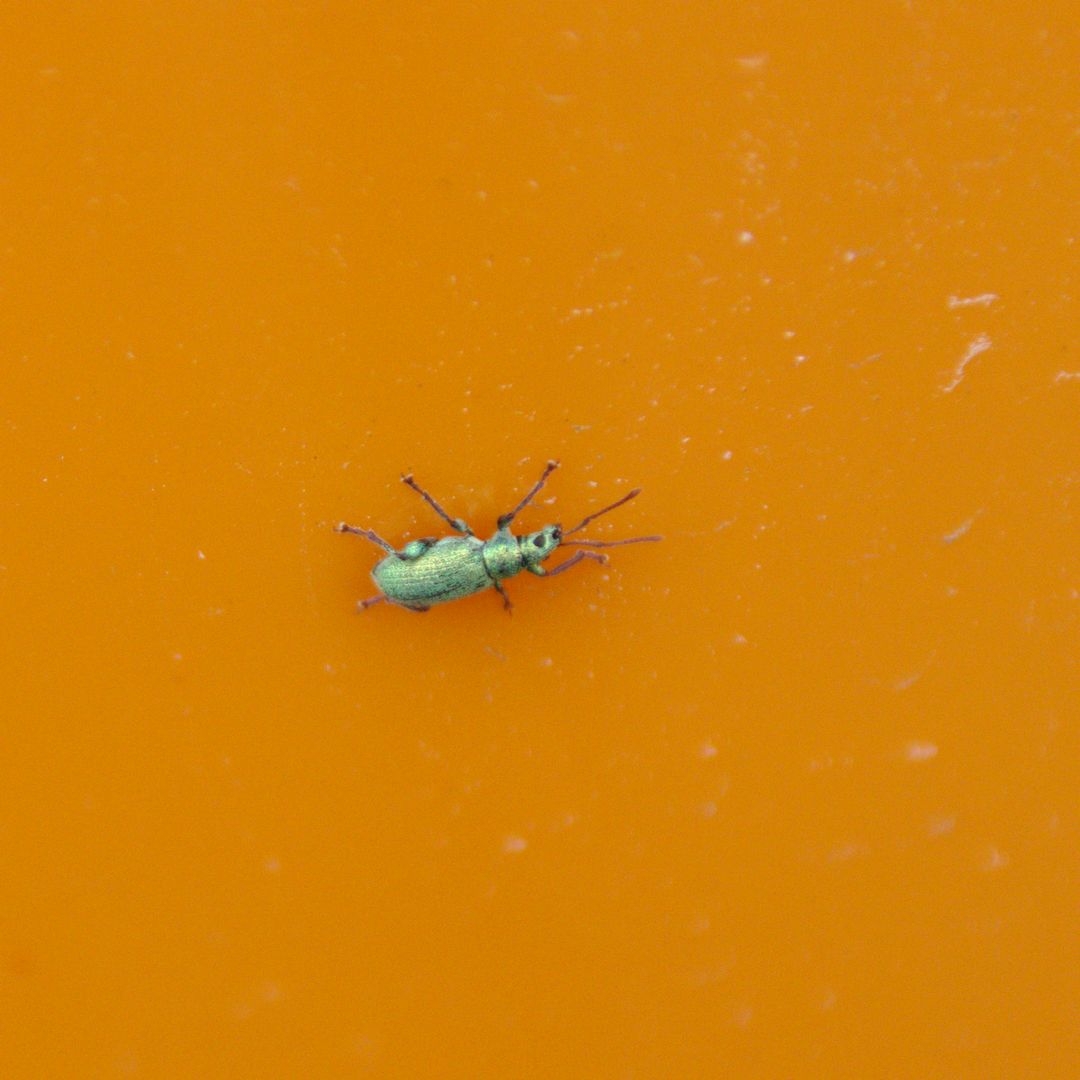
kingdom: Animalia
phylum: Arthropoda
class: Insecta
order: Coleoptera
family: Curculionidae
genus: Phyllobius
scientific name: Phyllobius
